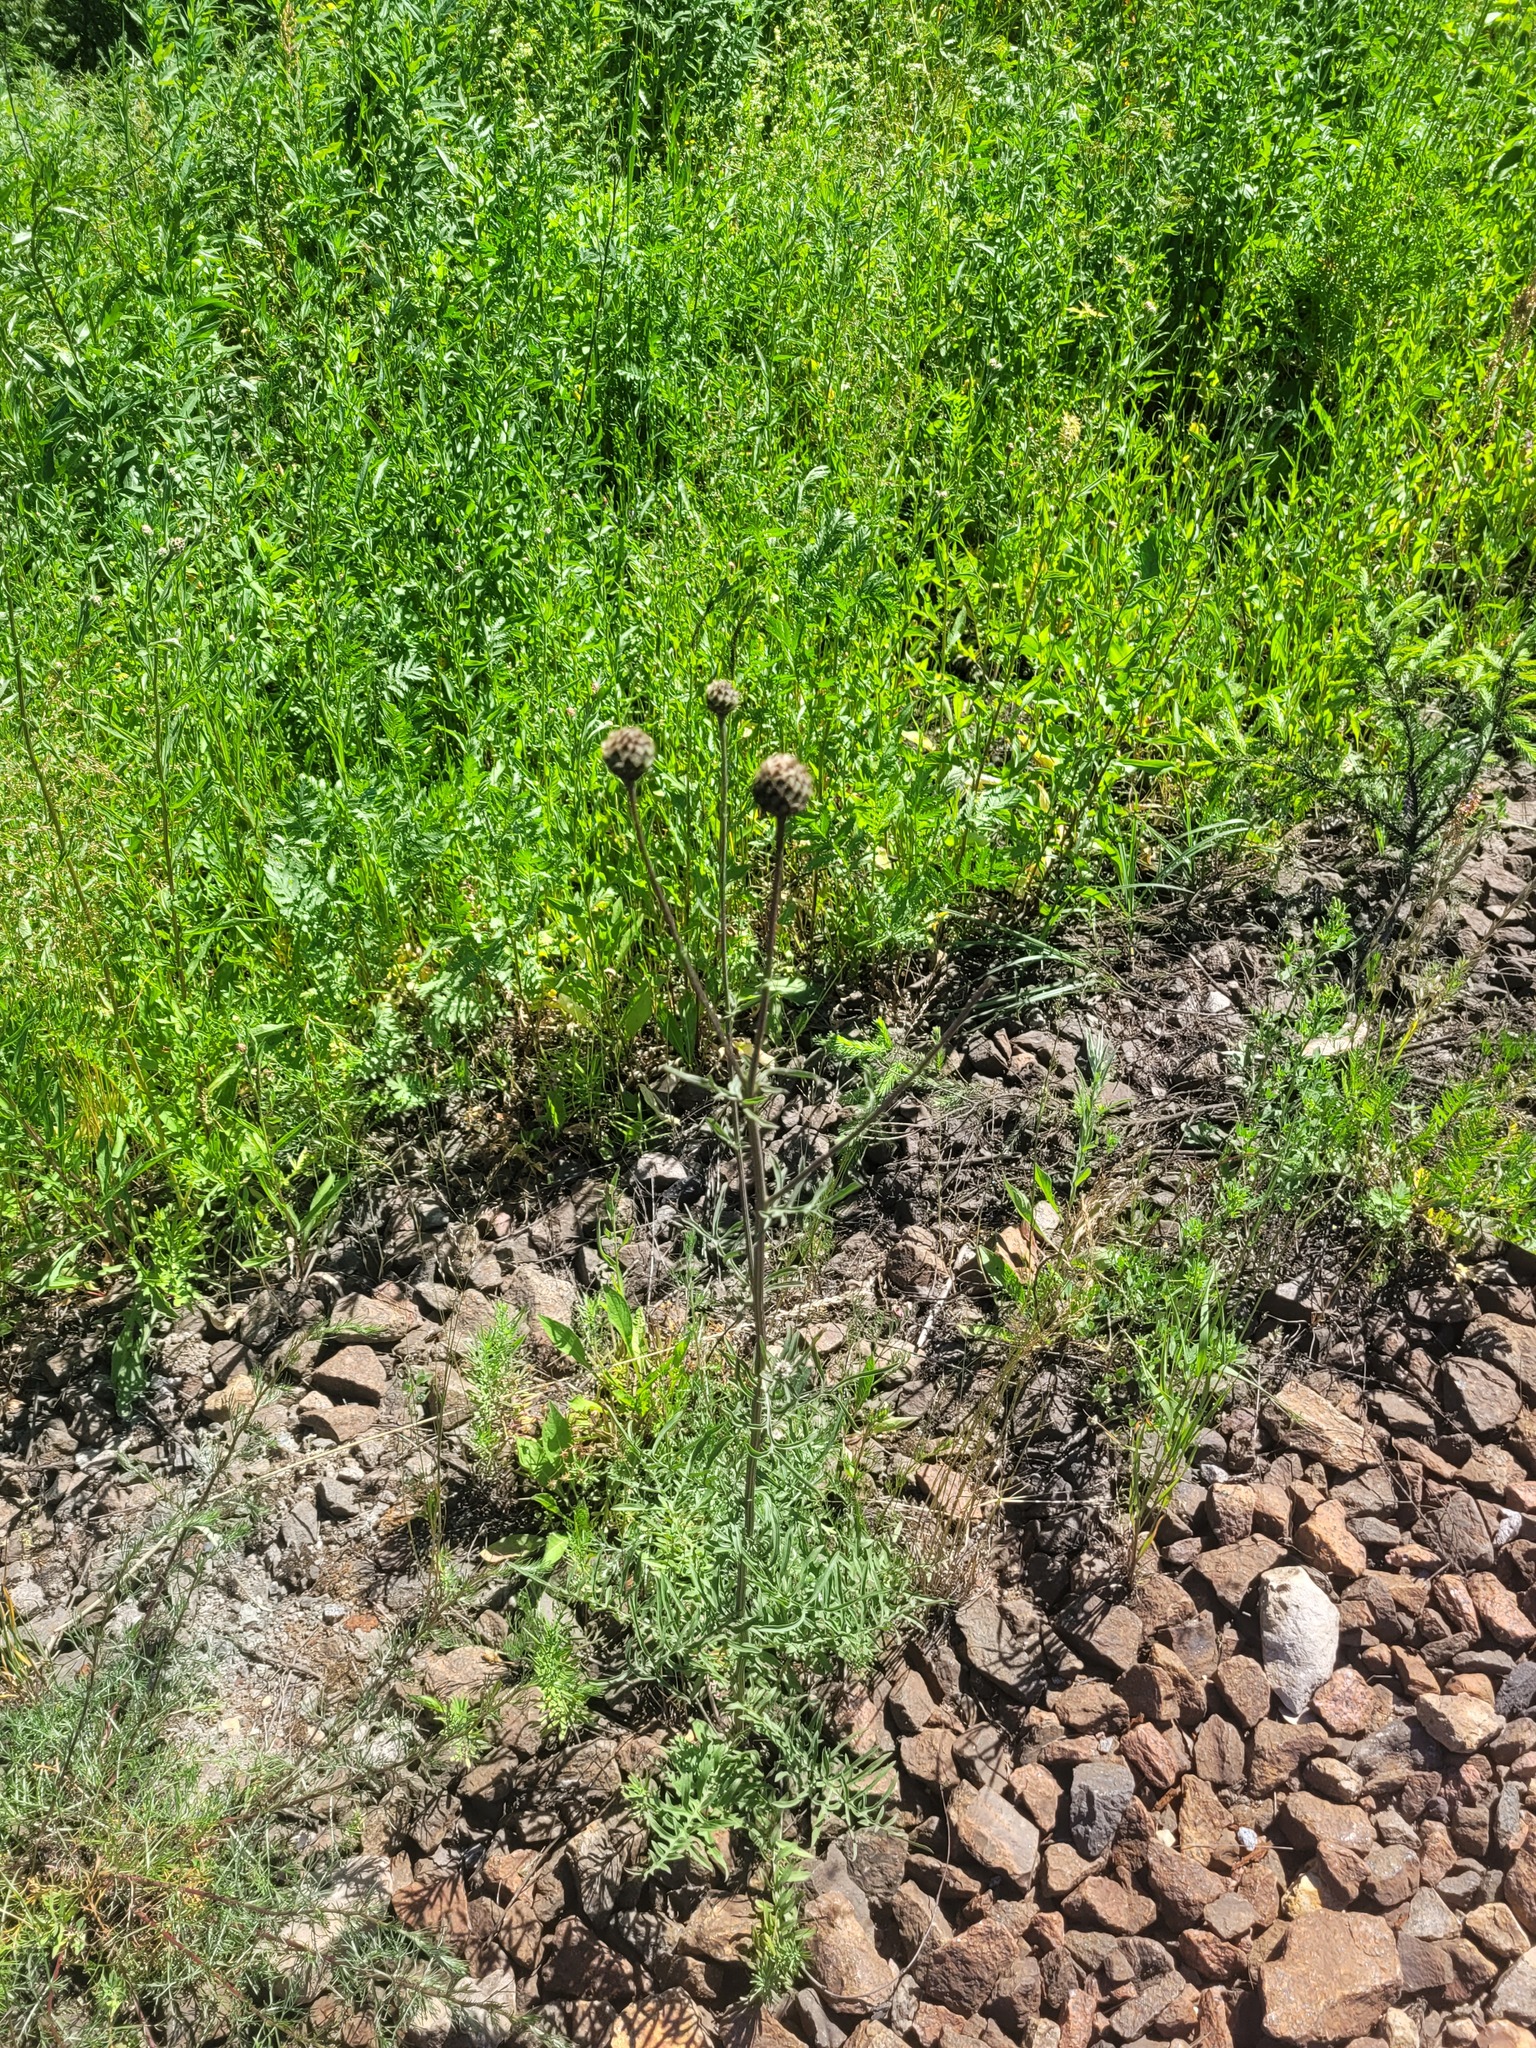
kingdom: Plantae
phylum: Tracheophyta
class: Magnoliopsida
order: Asterales
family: Asteraceae
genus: Centaurea
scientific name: Centaurea scabiosa
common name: Greater knapweed
